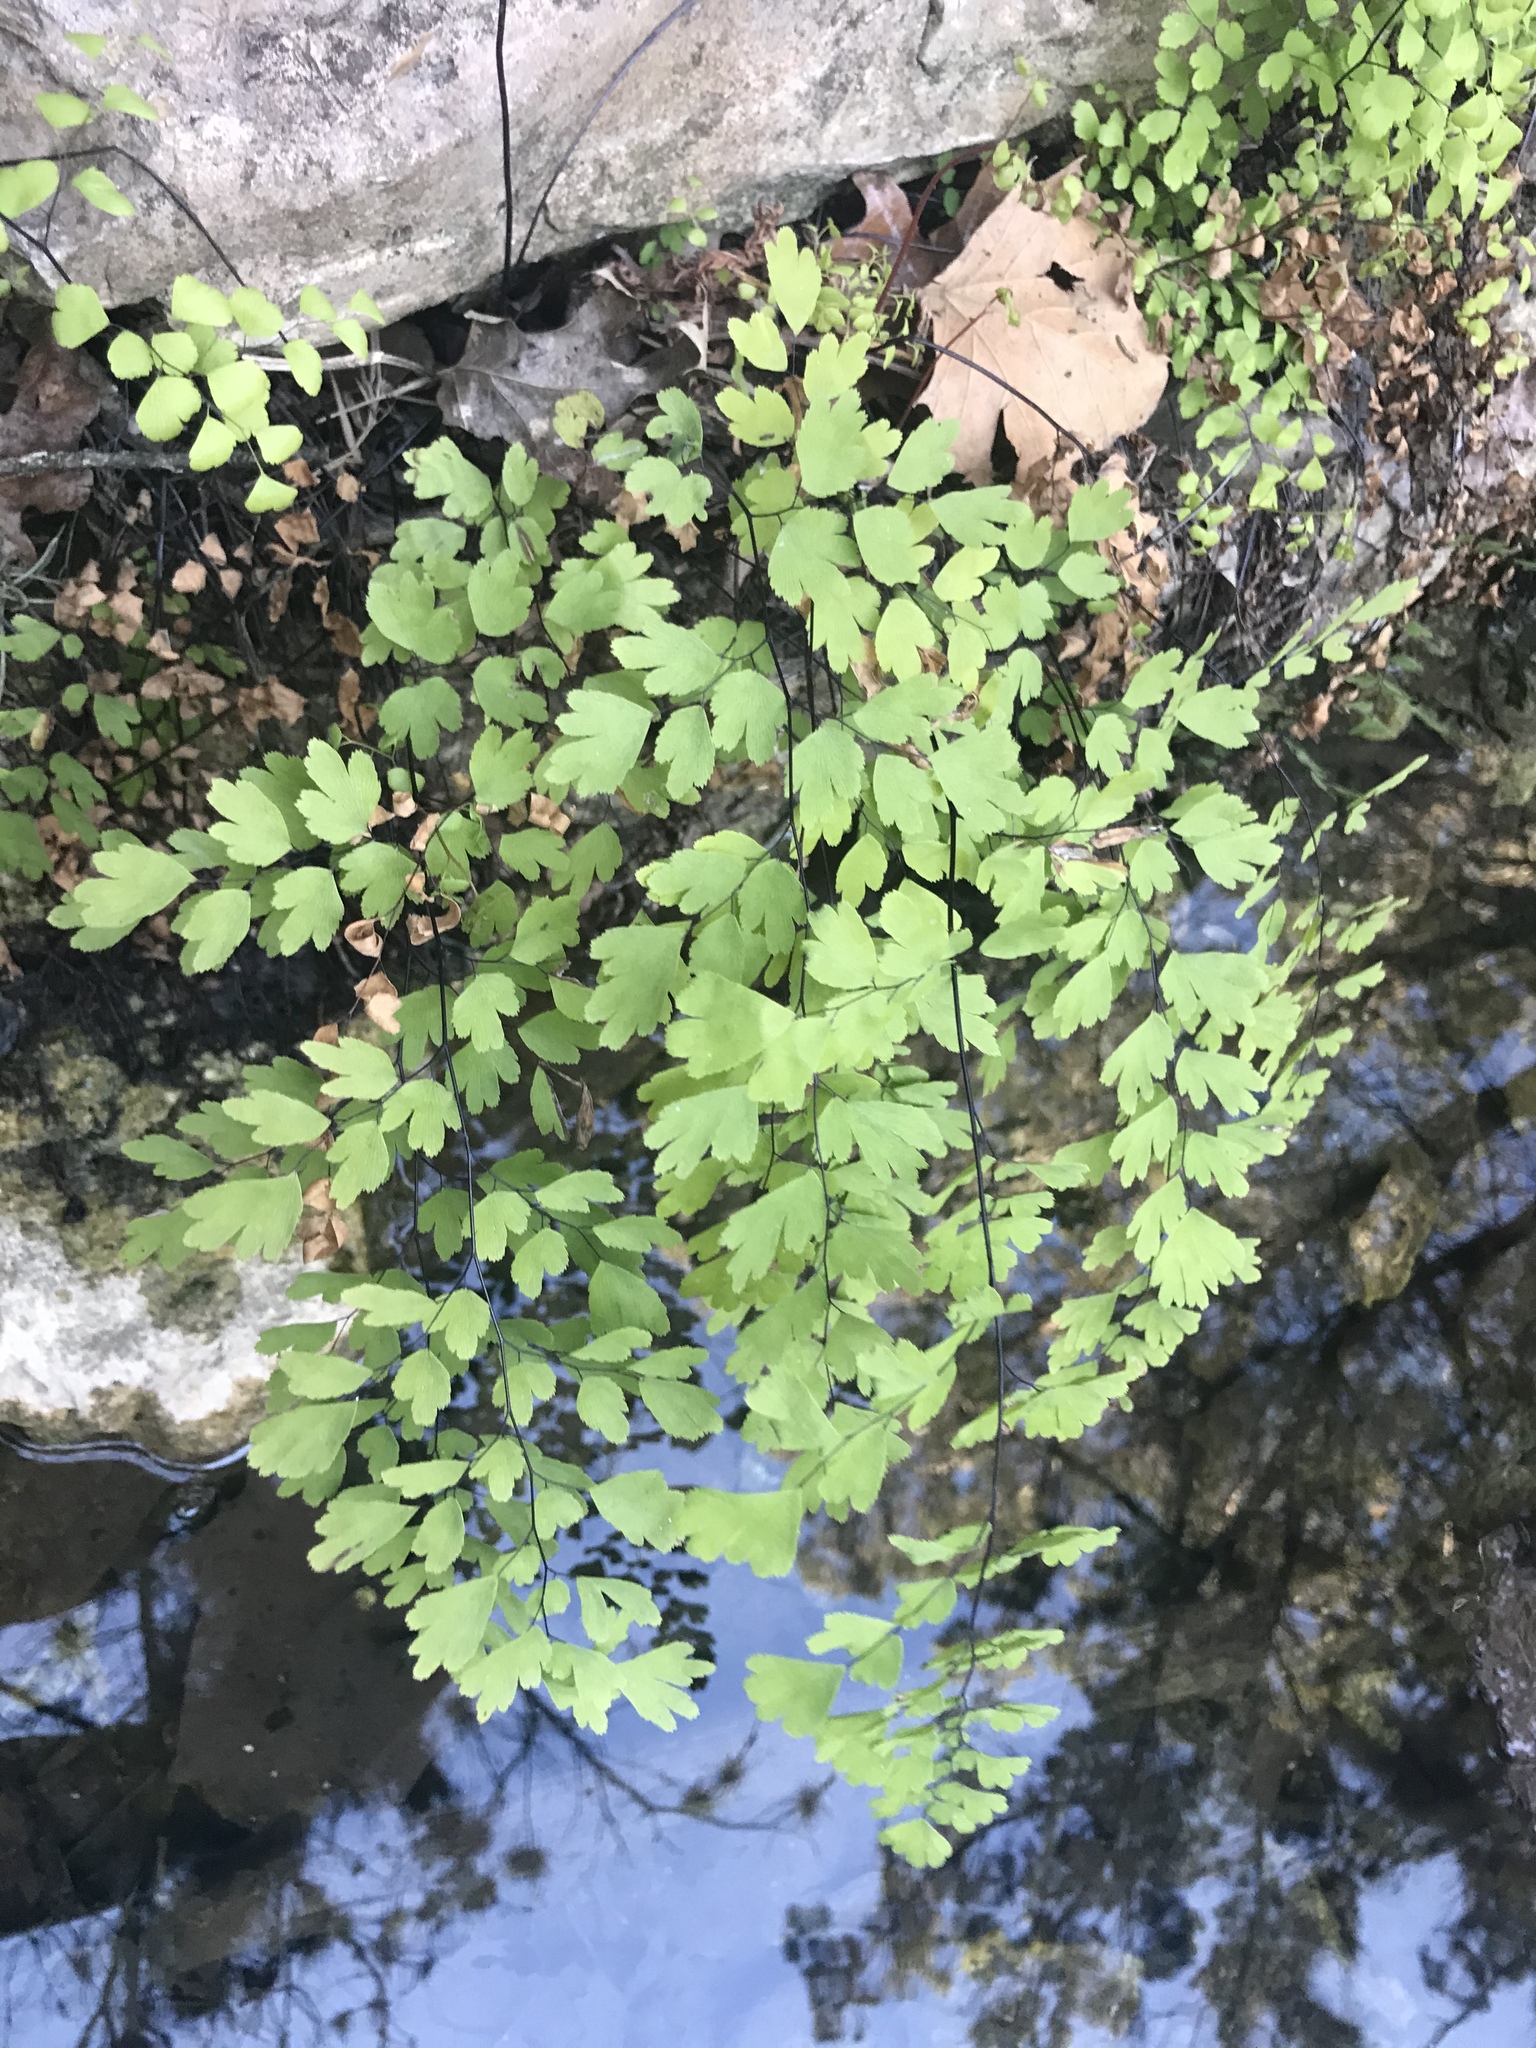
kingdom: Plantae
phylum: Tracheophyta
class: Polypodiopsida
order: Polypodiales
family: Pteridaceae
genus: Adiantum
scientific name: Adiantum capillus-veneris
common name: Maidenhair fern
